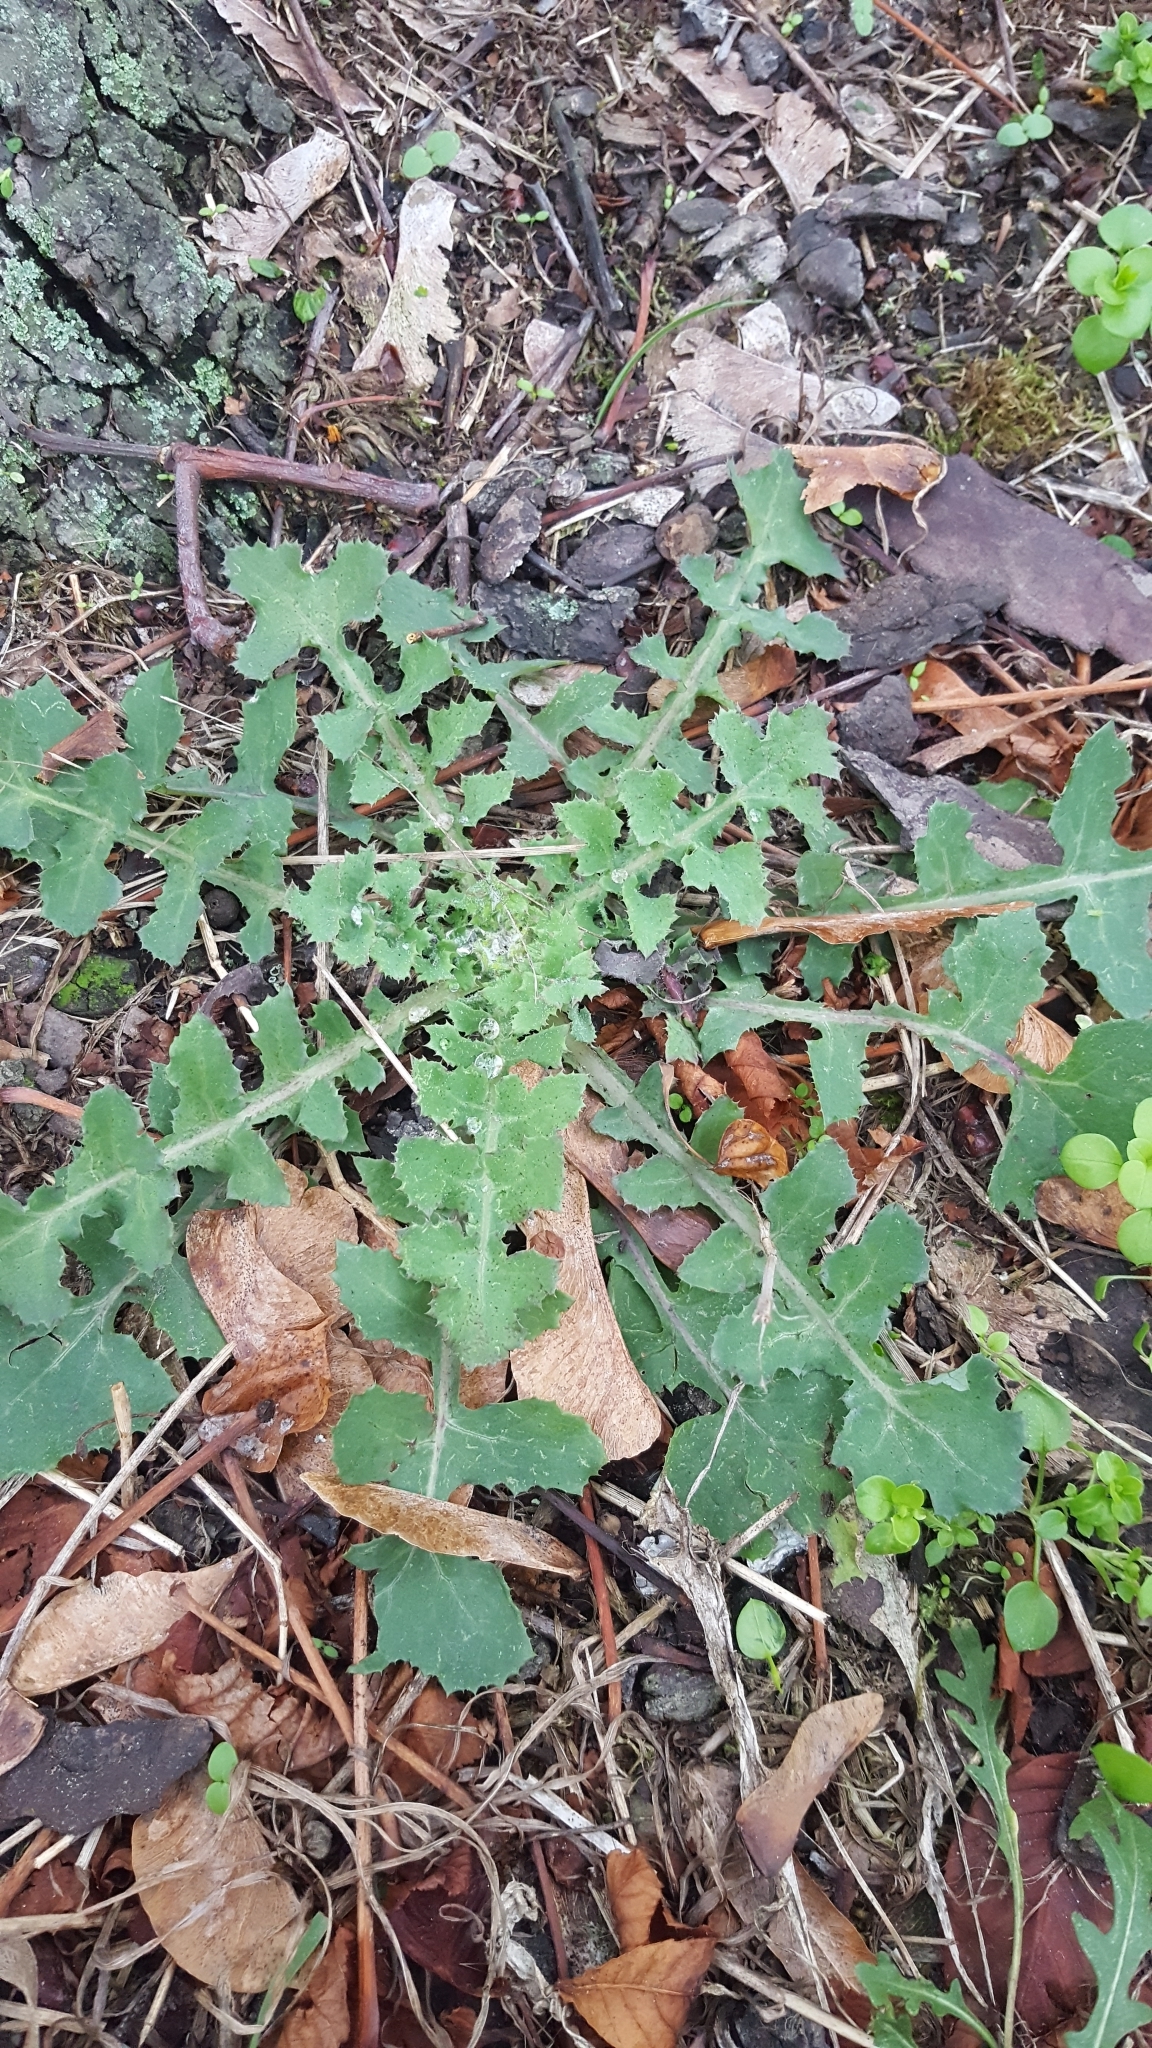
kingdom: Plantae
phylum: Tracheophyta
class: Magnoliopsida
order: Asterales
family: Asteraceae
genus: Sonchus
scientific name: Sonchus oleraceus
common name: Common sowthistle
